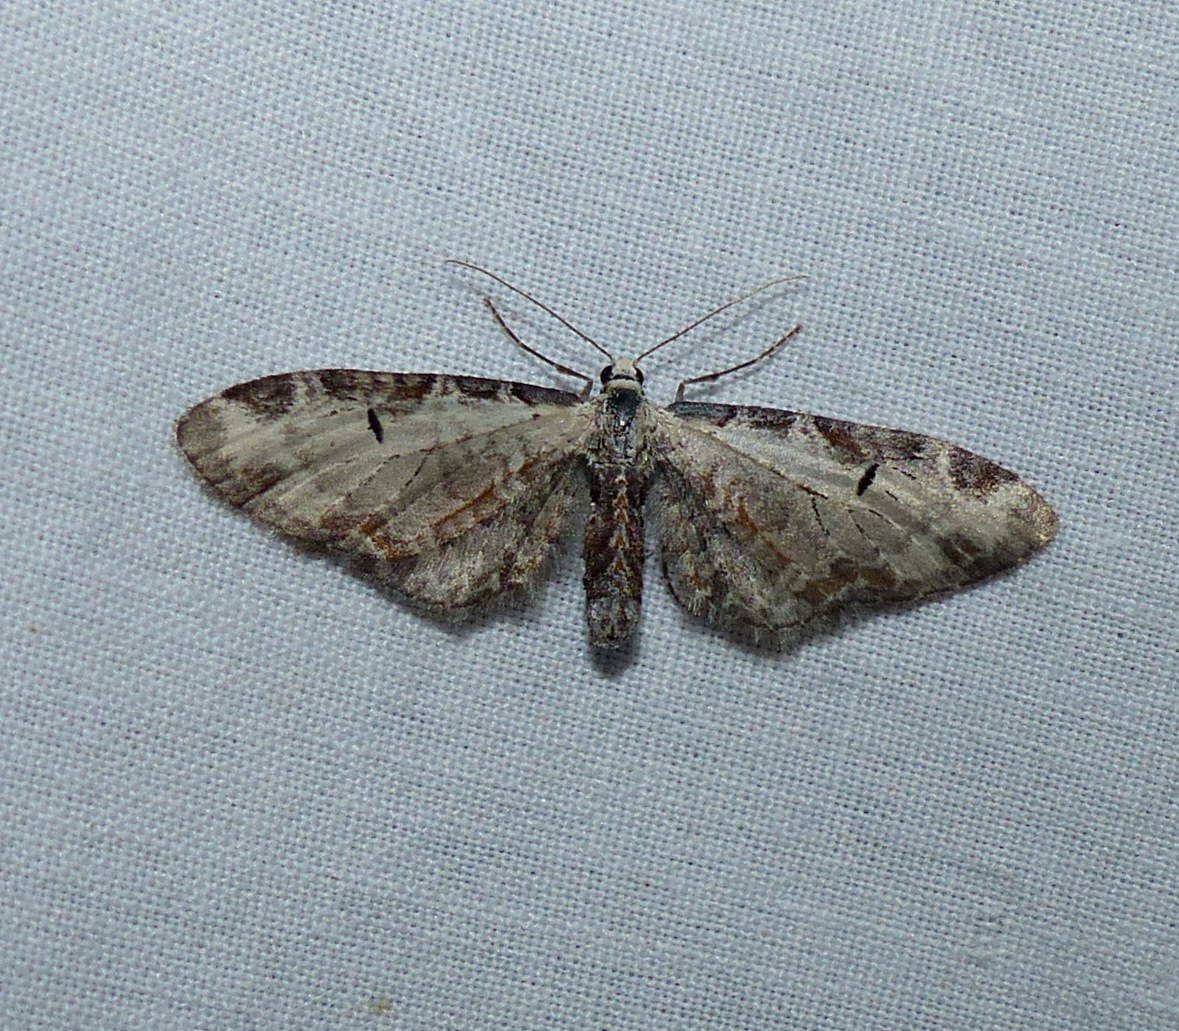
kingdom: Animalia
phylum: Arthropoda
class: Insecta
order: Lepidoptera
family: Geometridae
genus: Eupithecia
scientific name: Eupithecia ravocostaliata
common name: Great varigated pug
